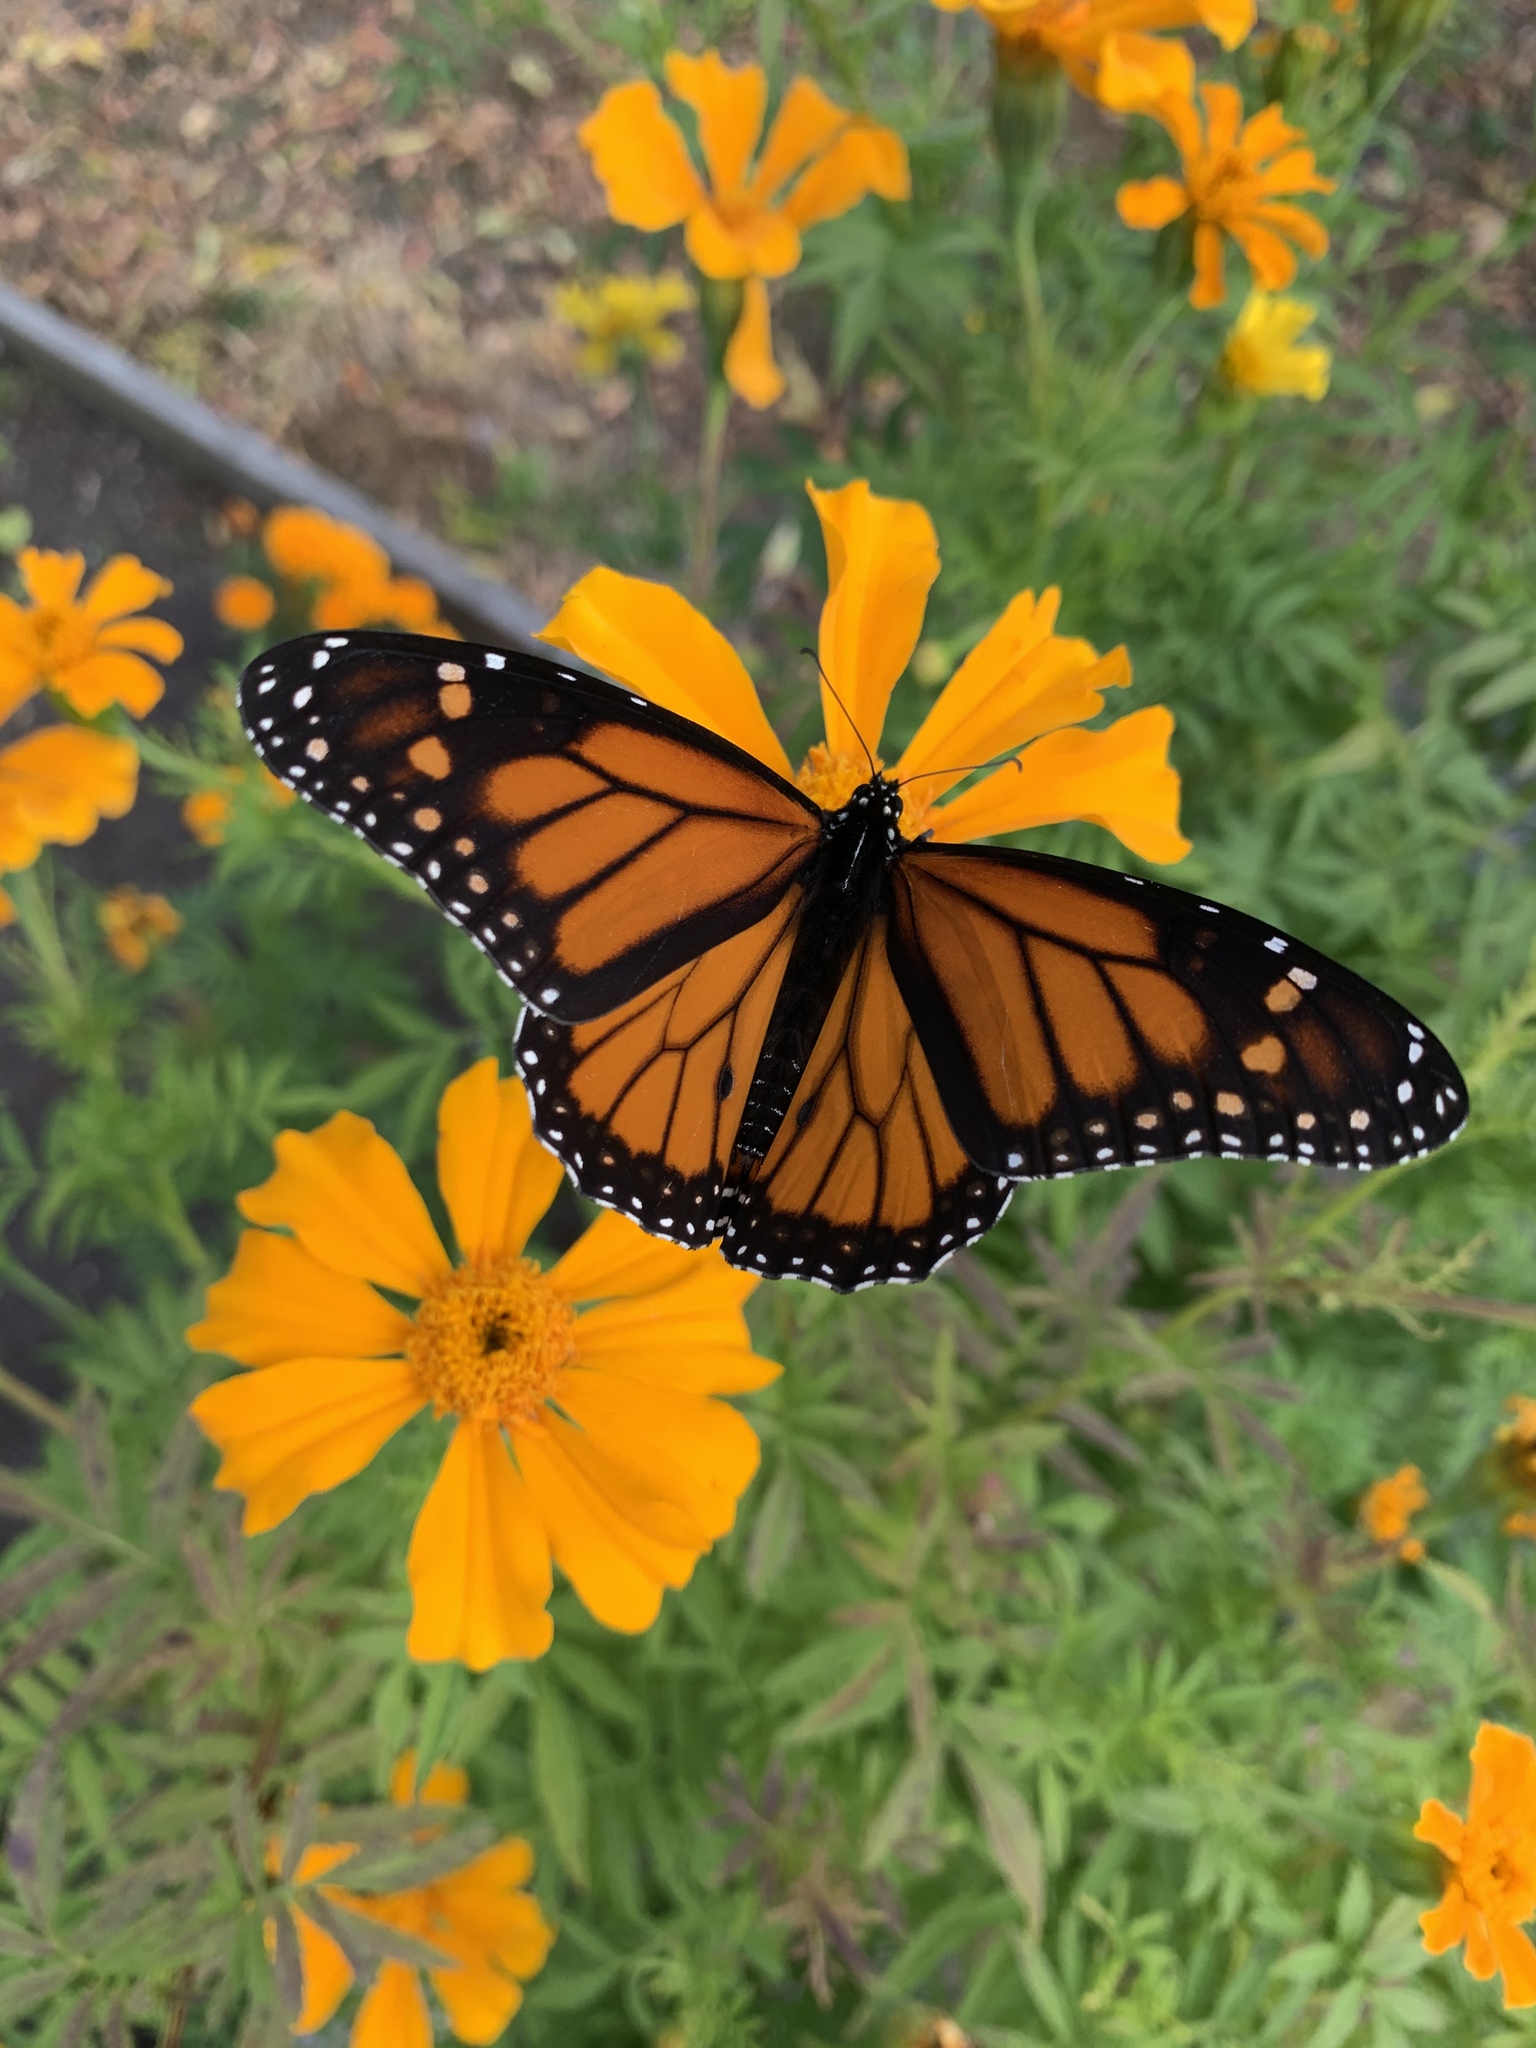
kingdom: Animalia
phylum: Arthropoda
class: Insecta
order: Lepidoptera
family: Nymphalidae
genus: Danaus
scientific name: Danaus plexippus
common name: Monarch
